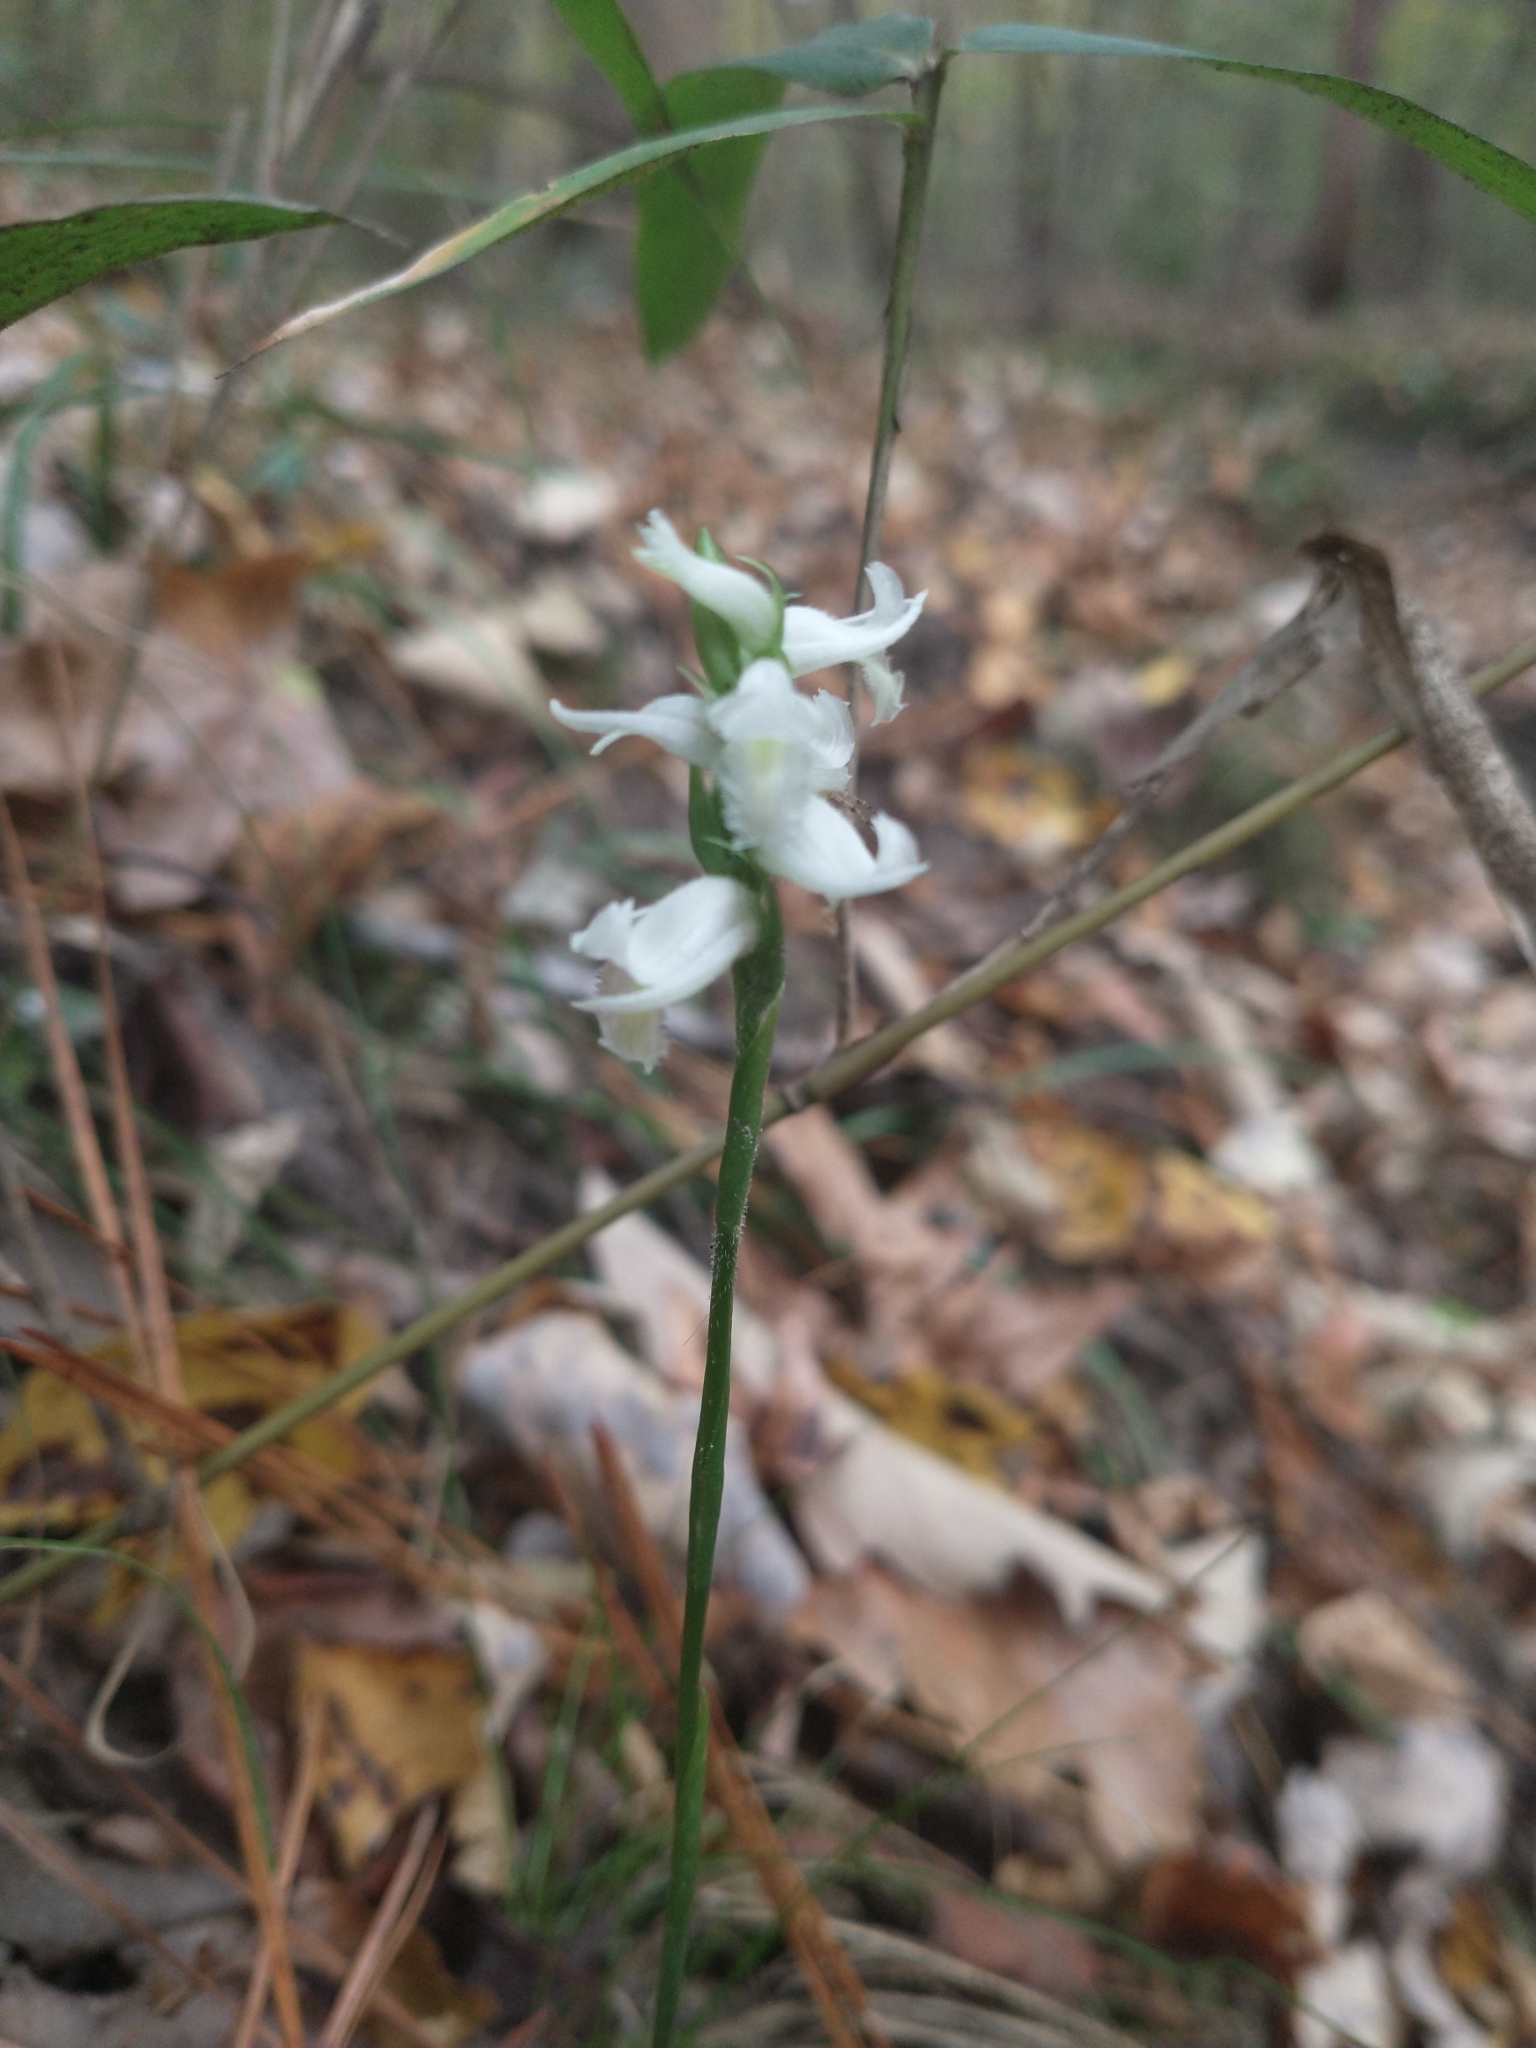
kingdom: Plantae
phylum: Tracheophyta
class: Liliopsida
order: Asparagales
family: Orchidaceae
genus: Spiranthes
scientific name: Spiranthes odorata
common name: Marsh ladies'-tresses
